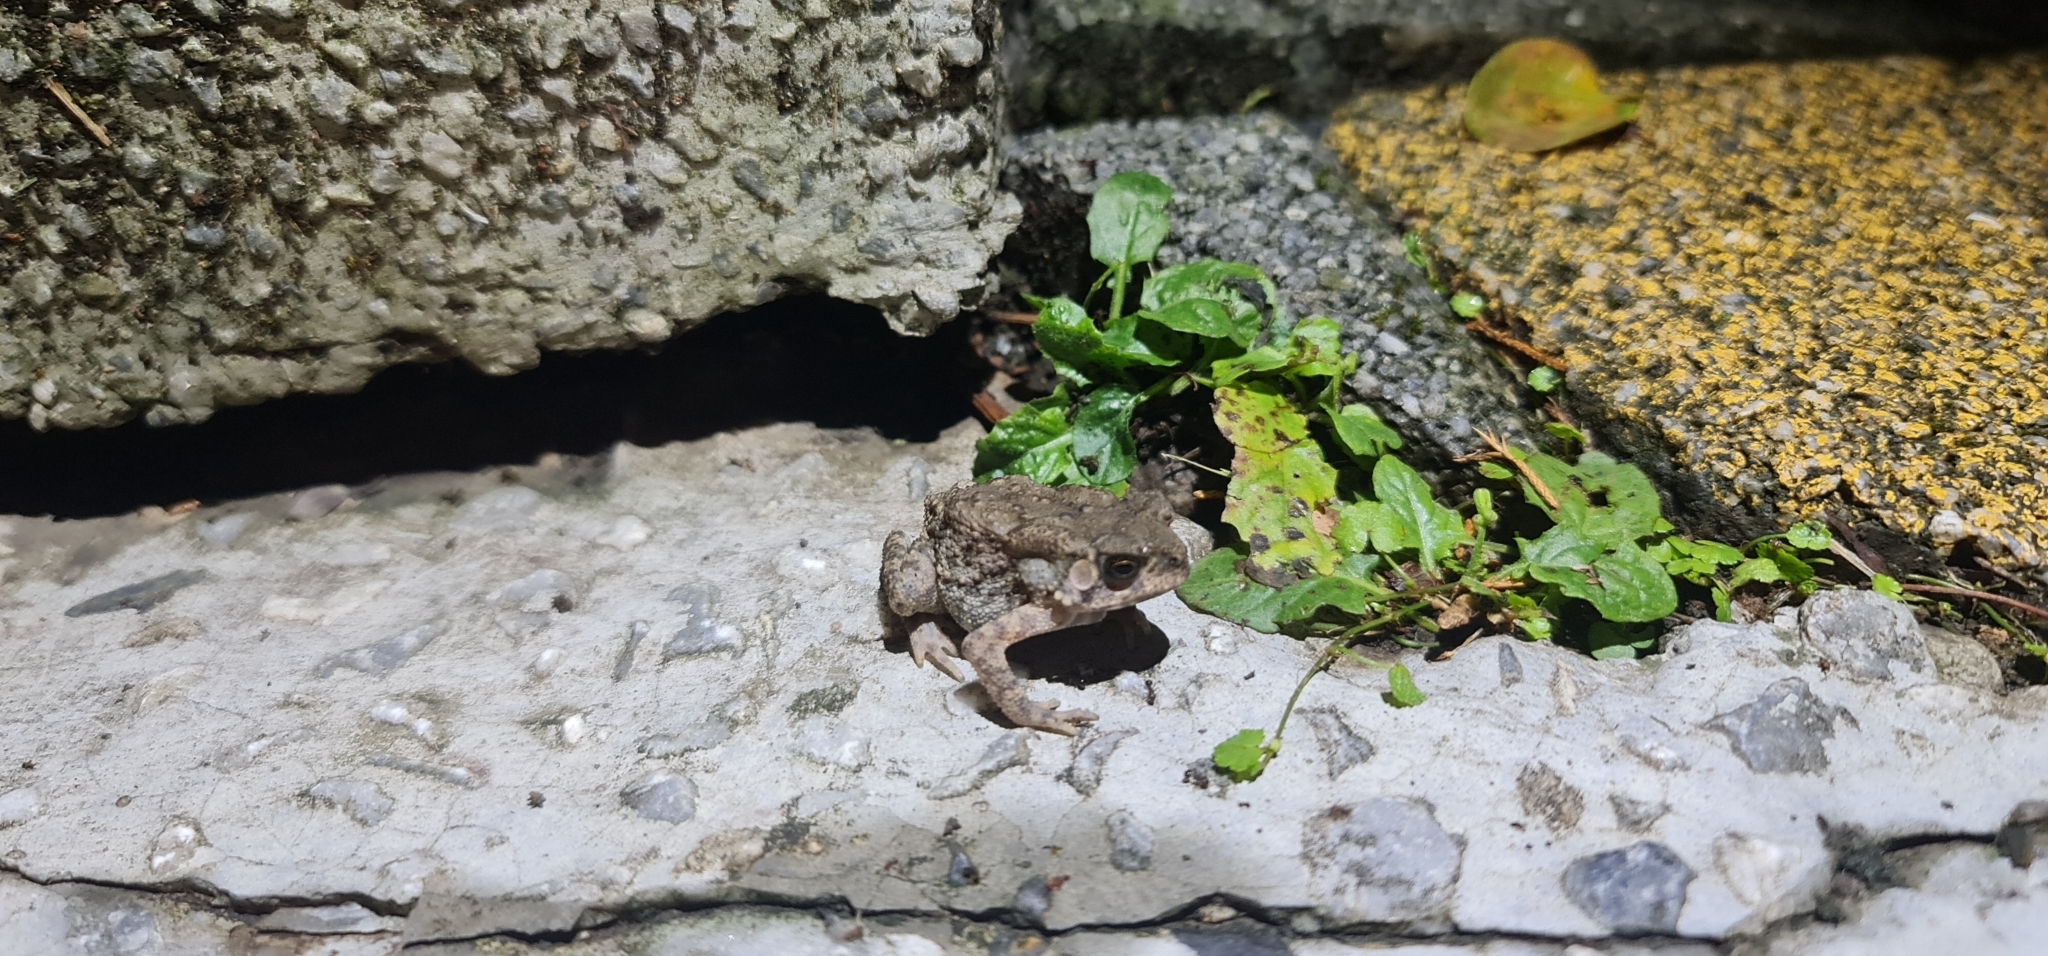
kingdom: Animalia
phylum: Chordata
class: Amphibia
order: Anura
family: Bufonidae
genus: Duttaphrynus
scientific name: Duttaphrynus melanostictus
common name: Common sunda toad
